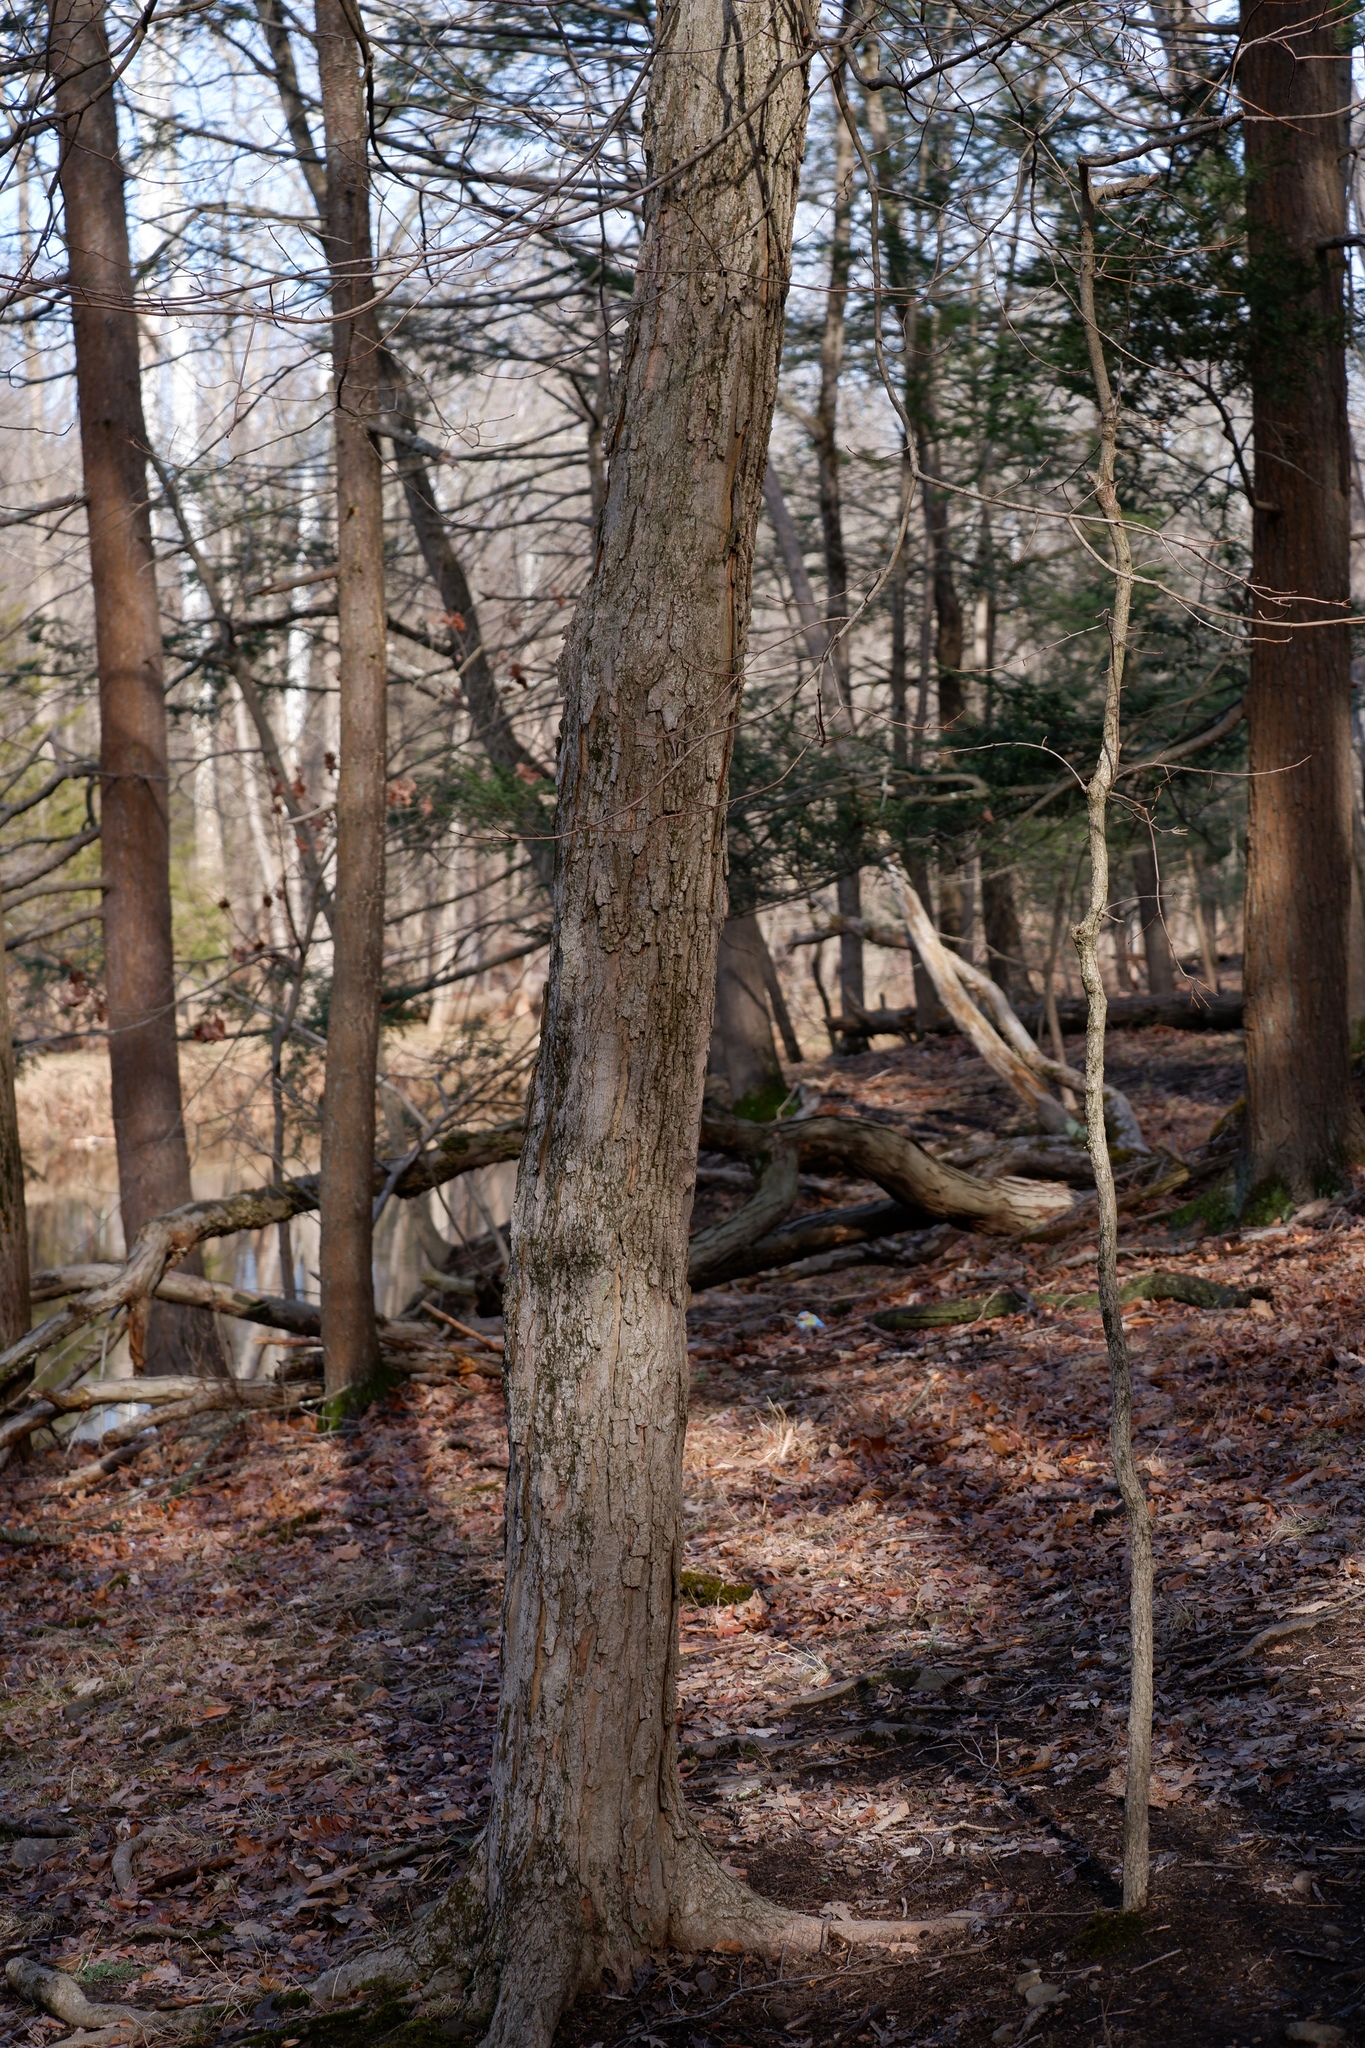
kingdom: Plantae
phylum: Tracheophyta
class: Magnoliopsida
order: Sapindales
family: Sapindaceae
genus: Acer
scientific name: Acer saccharum
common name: Sugar maple
